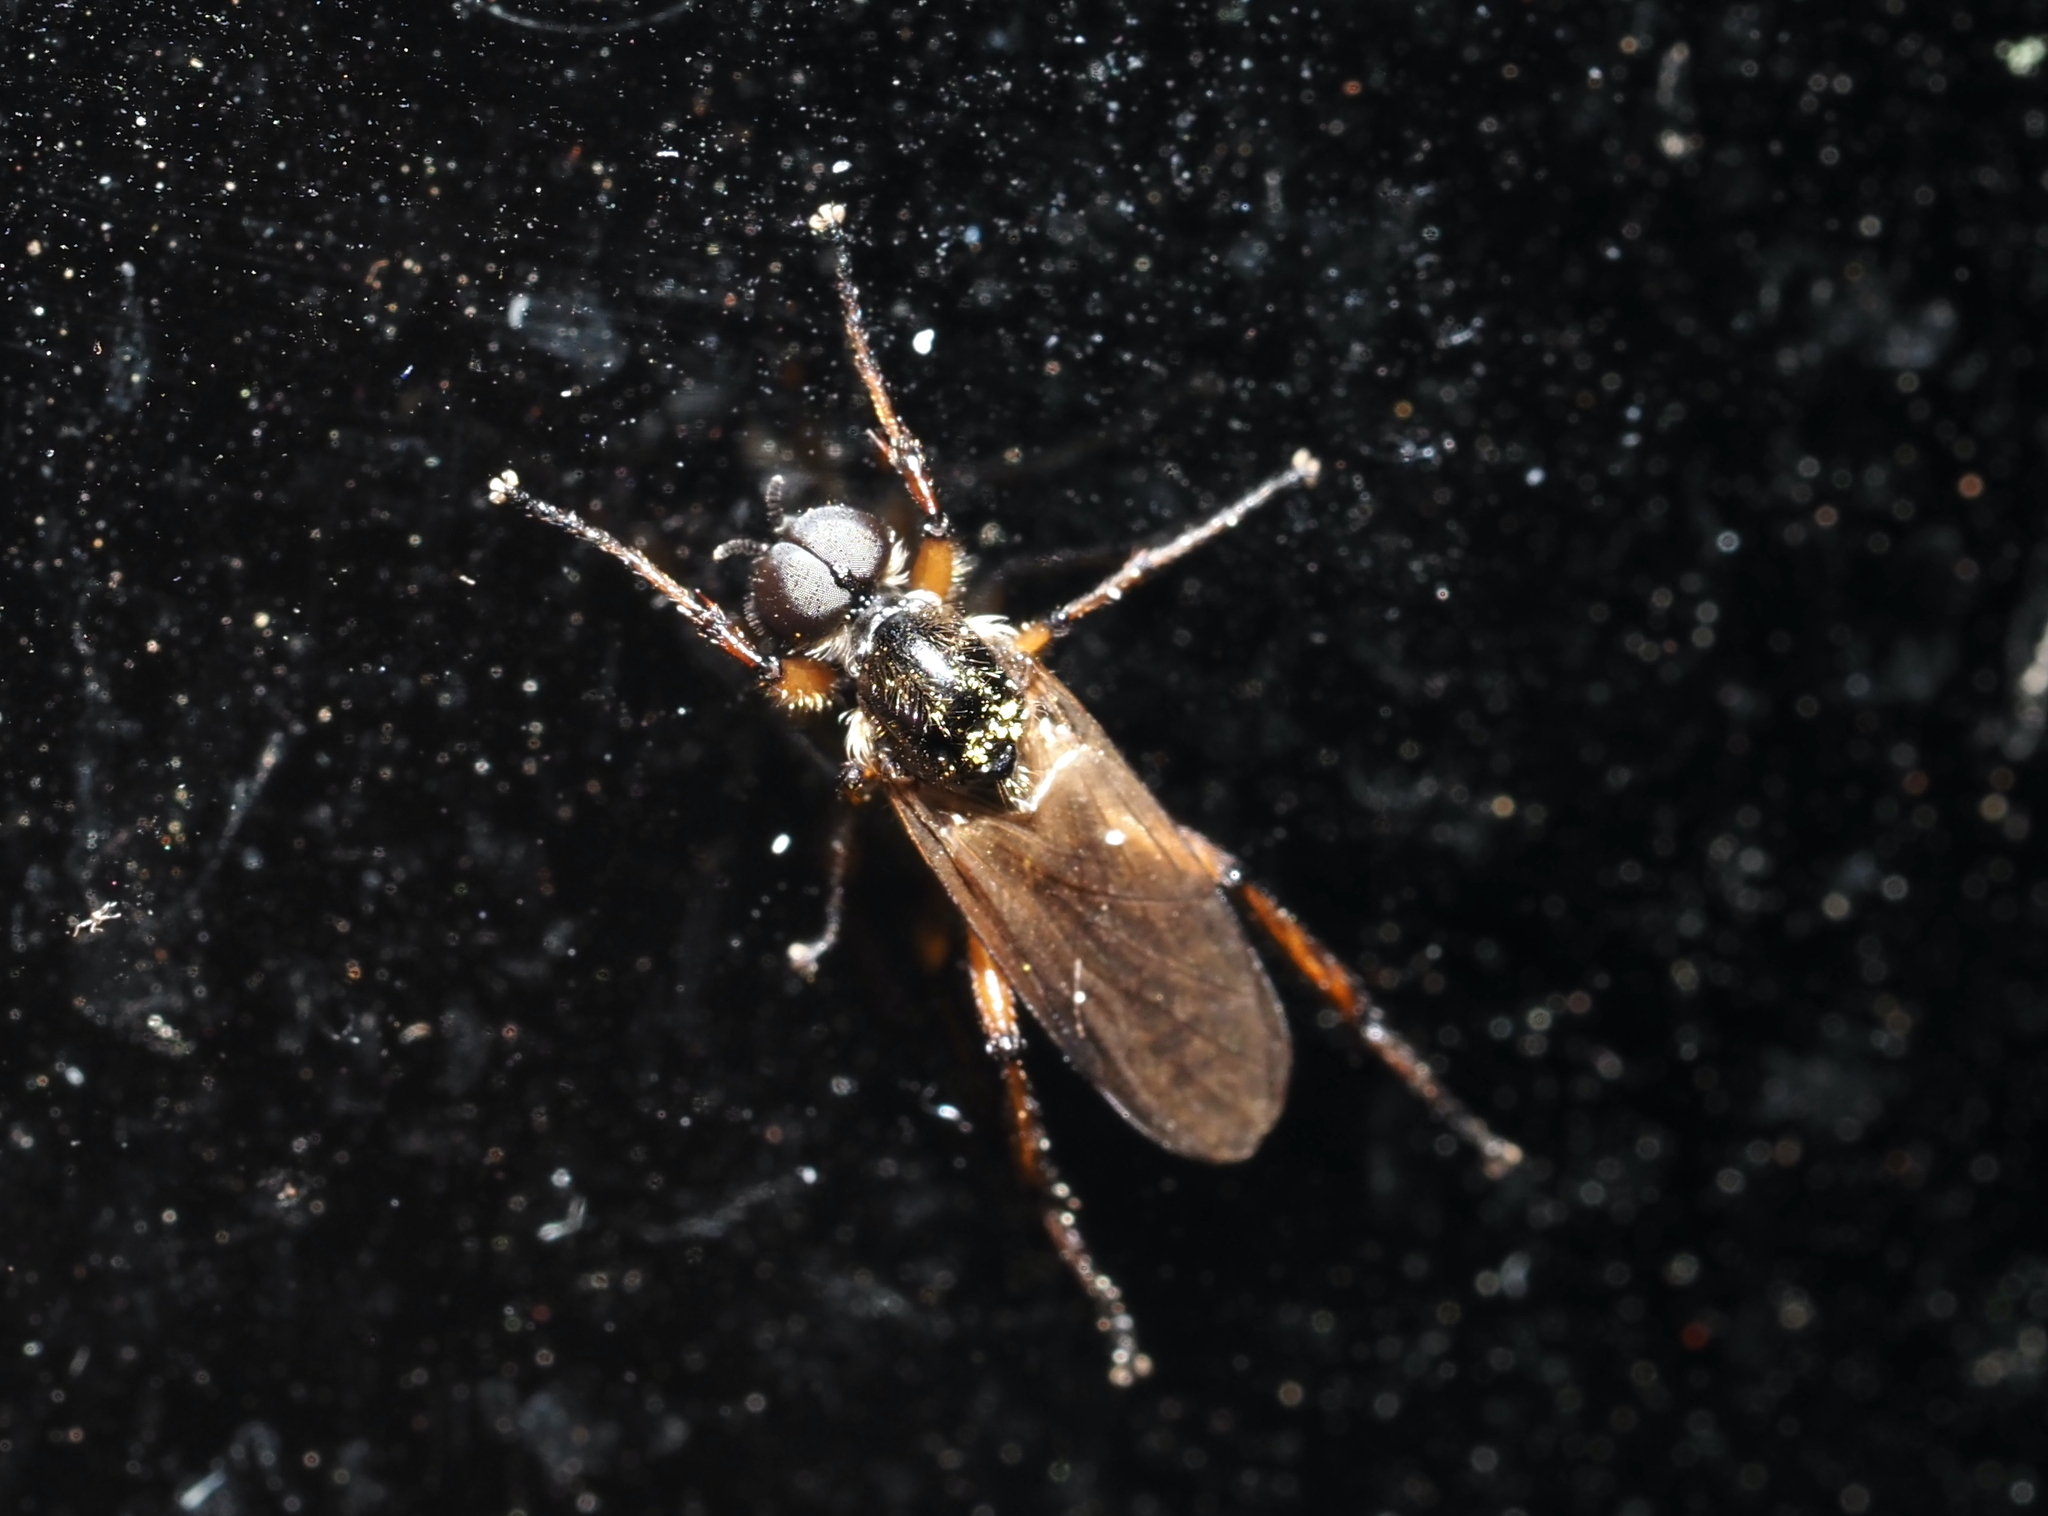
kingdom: Animalia
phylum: Arthropoda
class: Insecta
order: Diptera
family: Bibionidae
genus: Bibio
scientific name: Bibio articulatus
